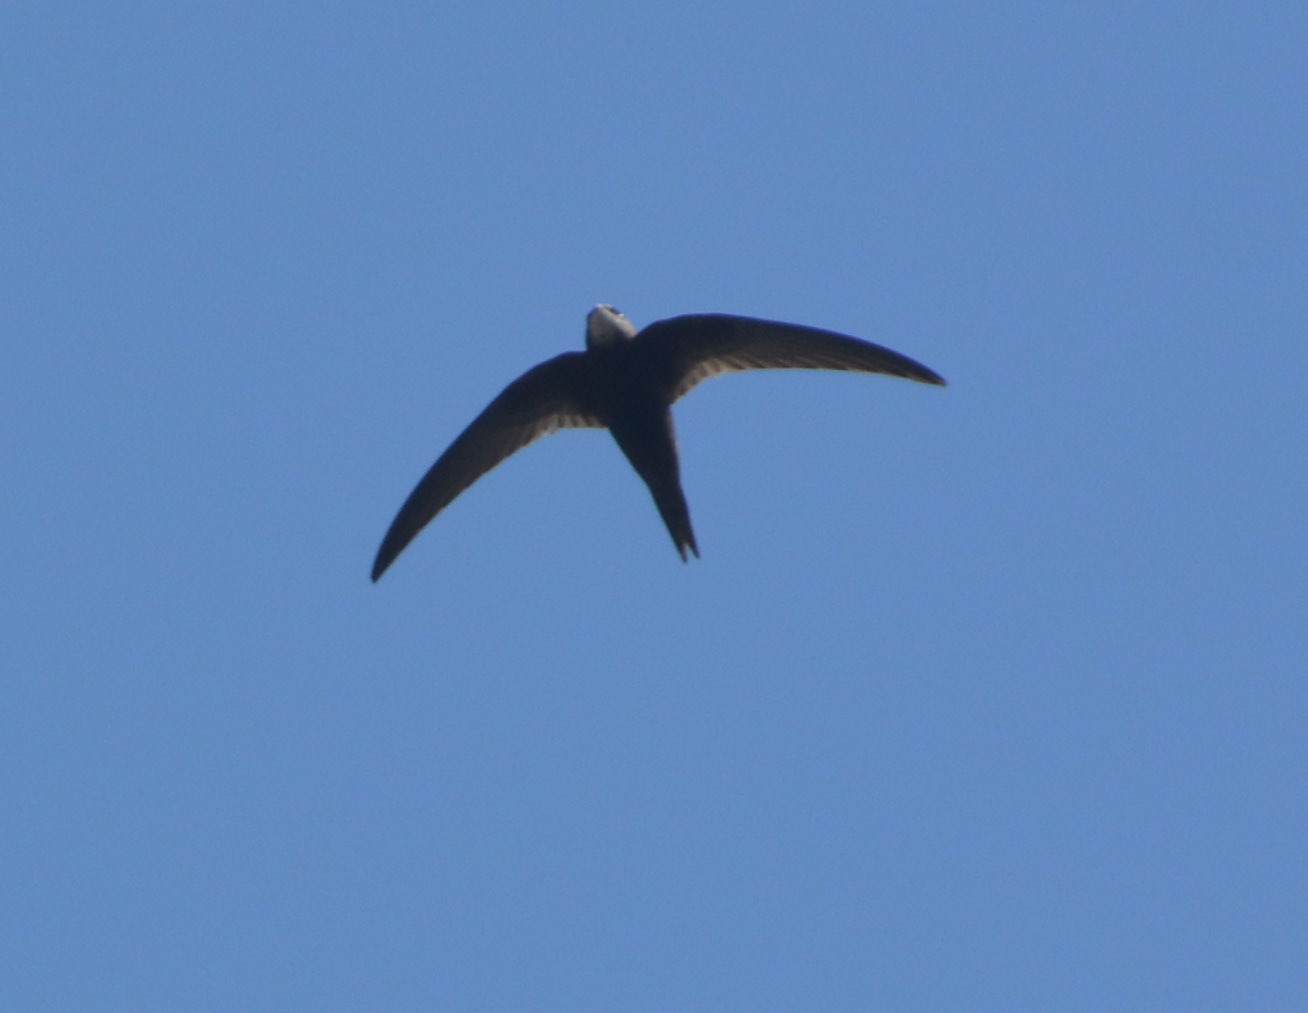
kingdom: Animalia
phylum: Chordata
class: Aves
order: Apodiformes
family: Apodidae
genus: Apus
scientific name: Apus apus
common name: Common swift
